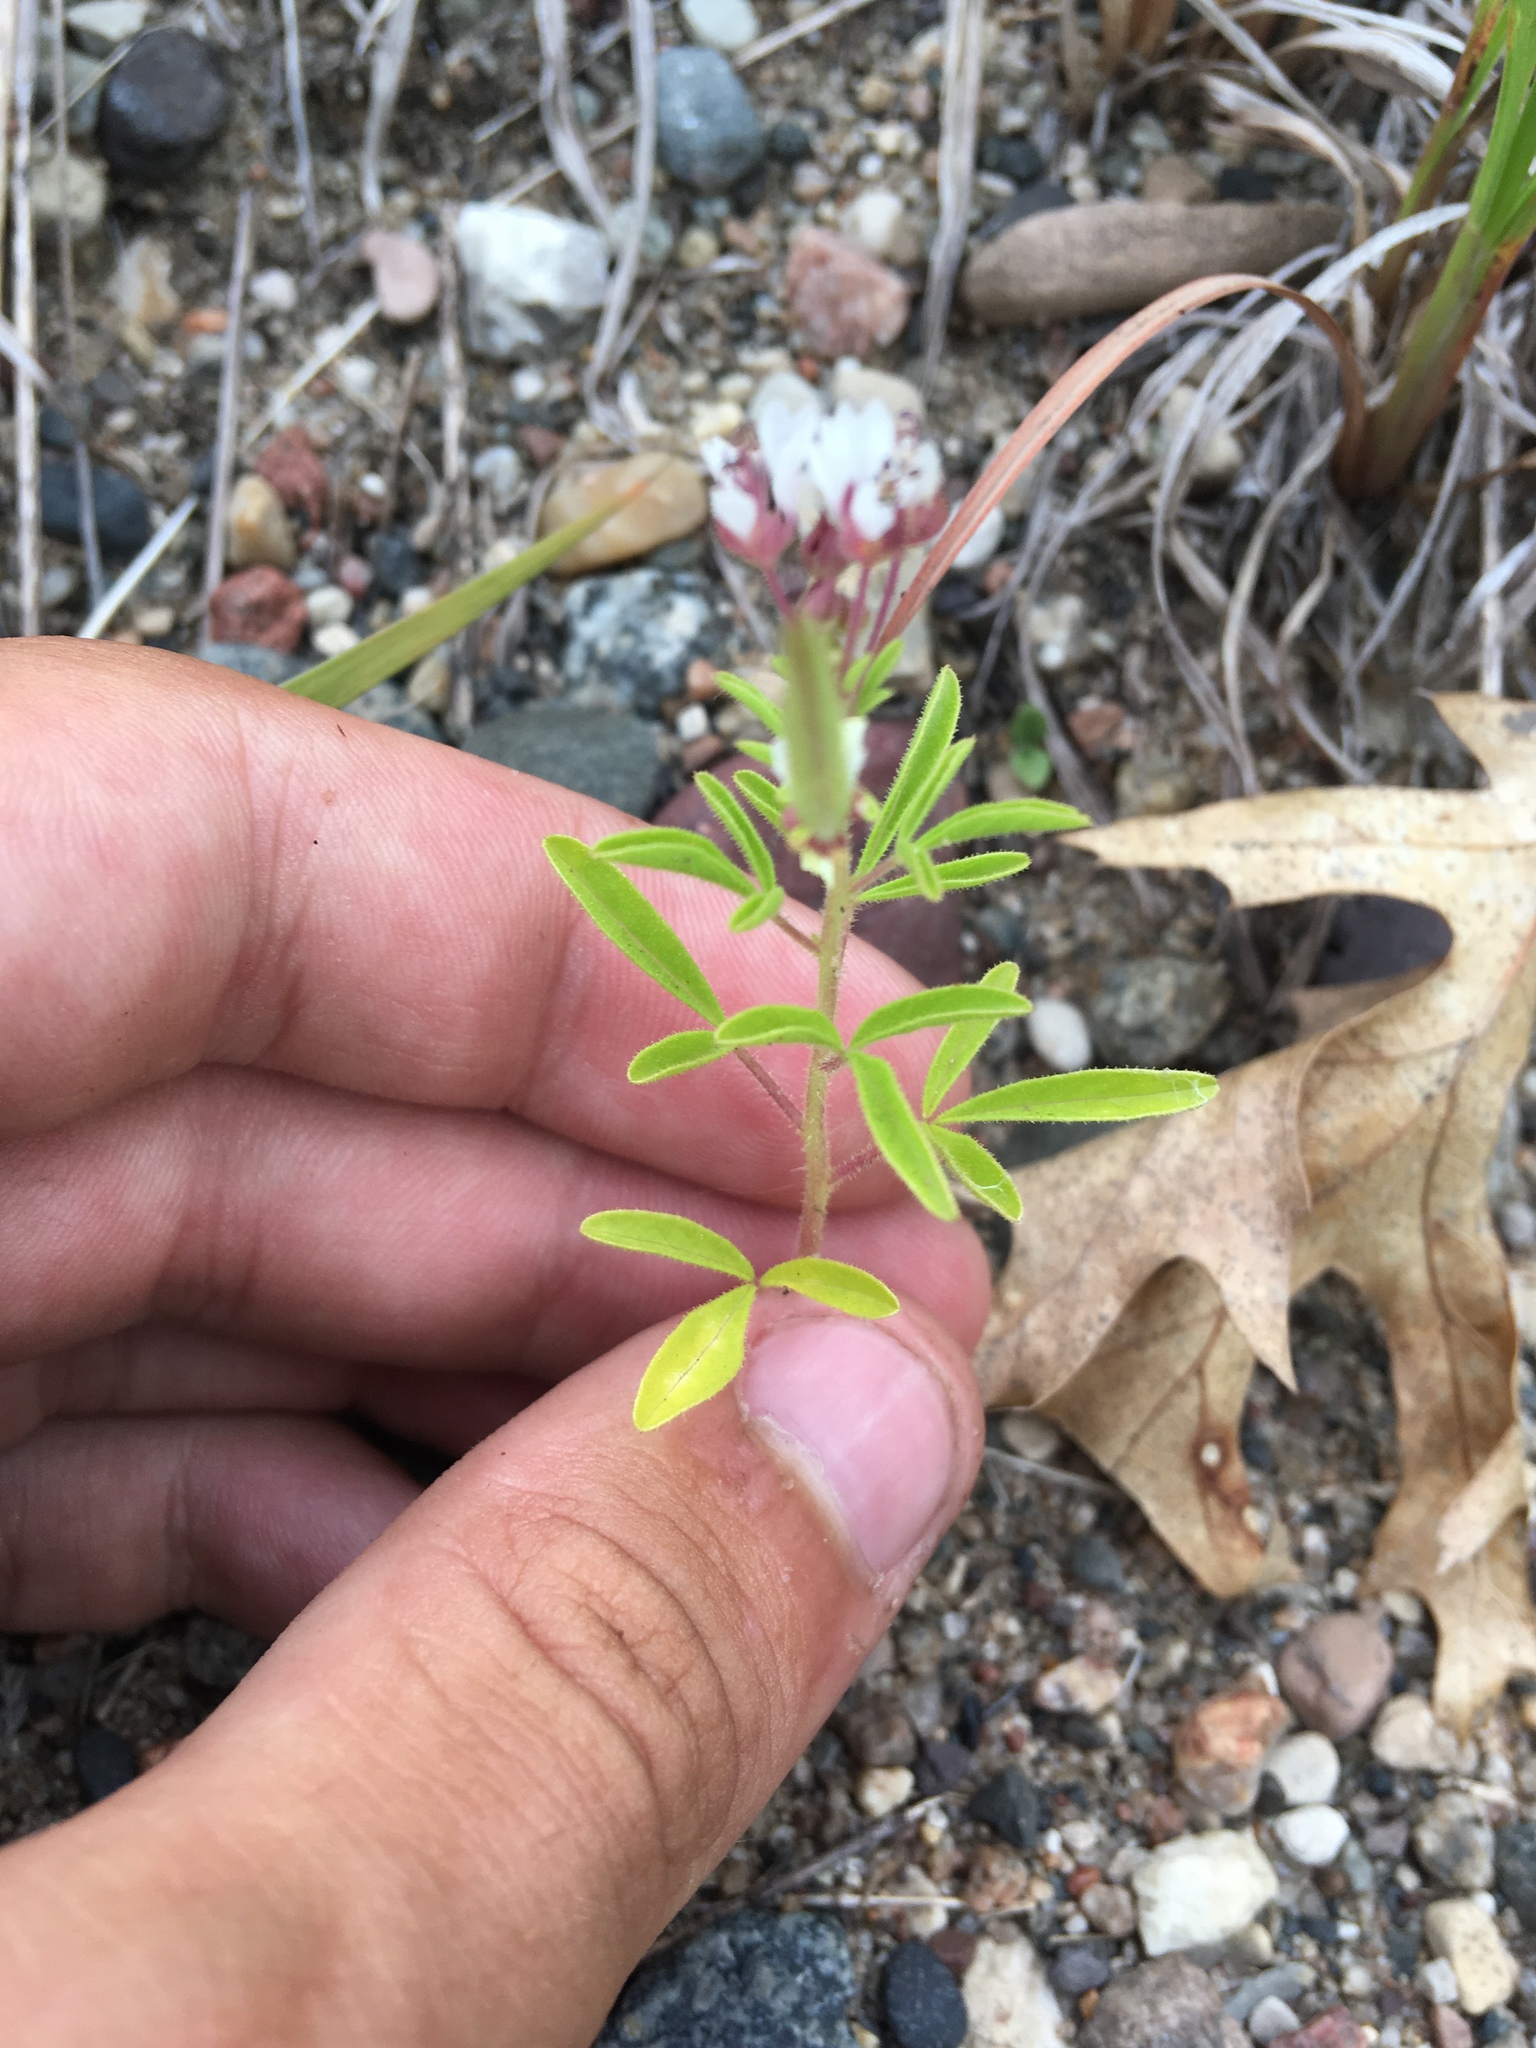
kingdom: Plantae
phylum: Tracheophyta
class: Magnoliopsida
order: Brassicales
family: Cleomaceae
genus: Polanisia
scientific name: Polanisia dodecandra
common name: Clammyweed
